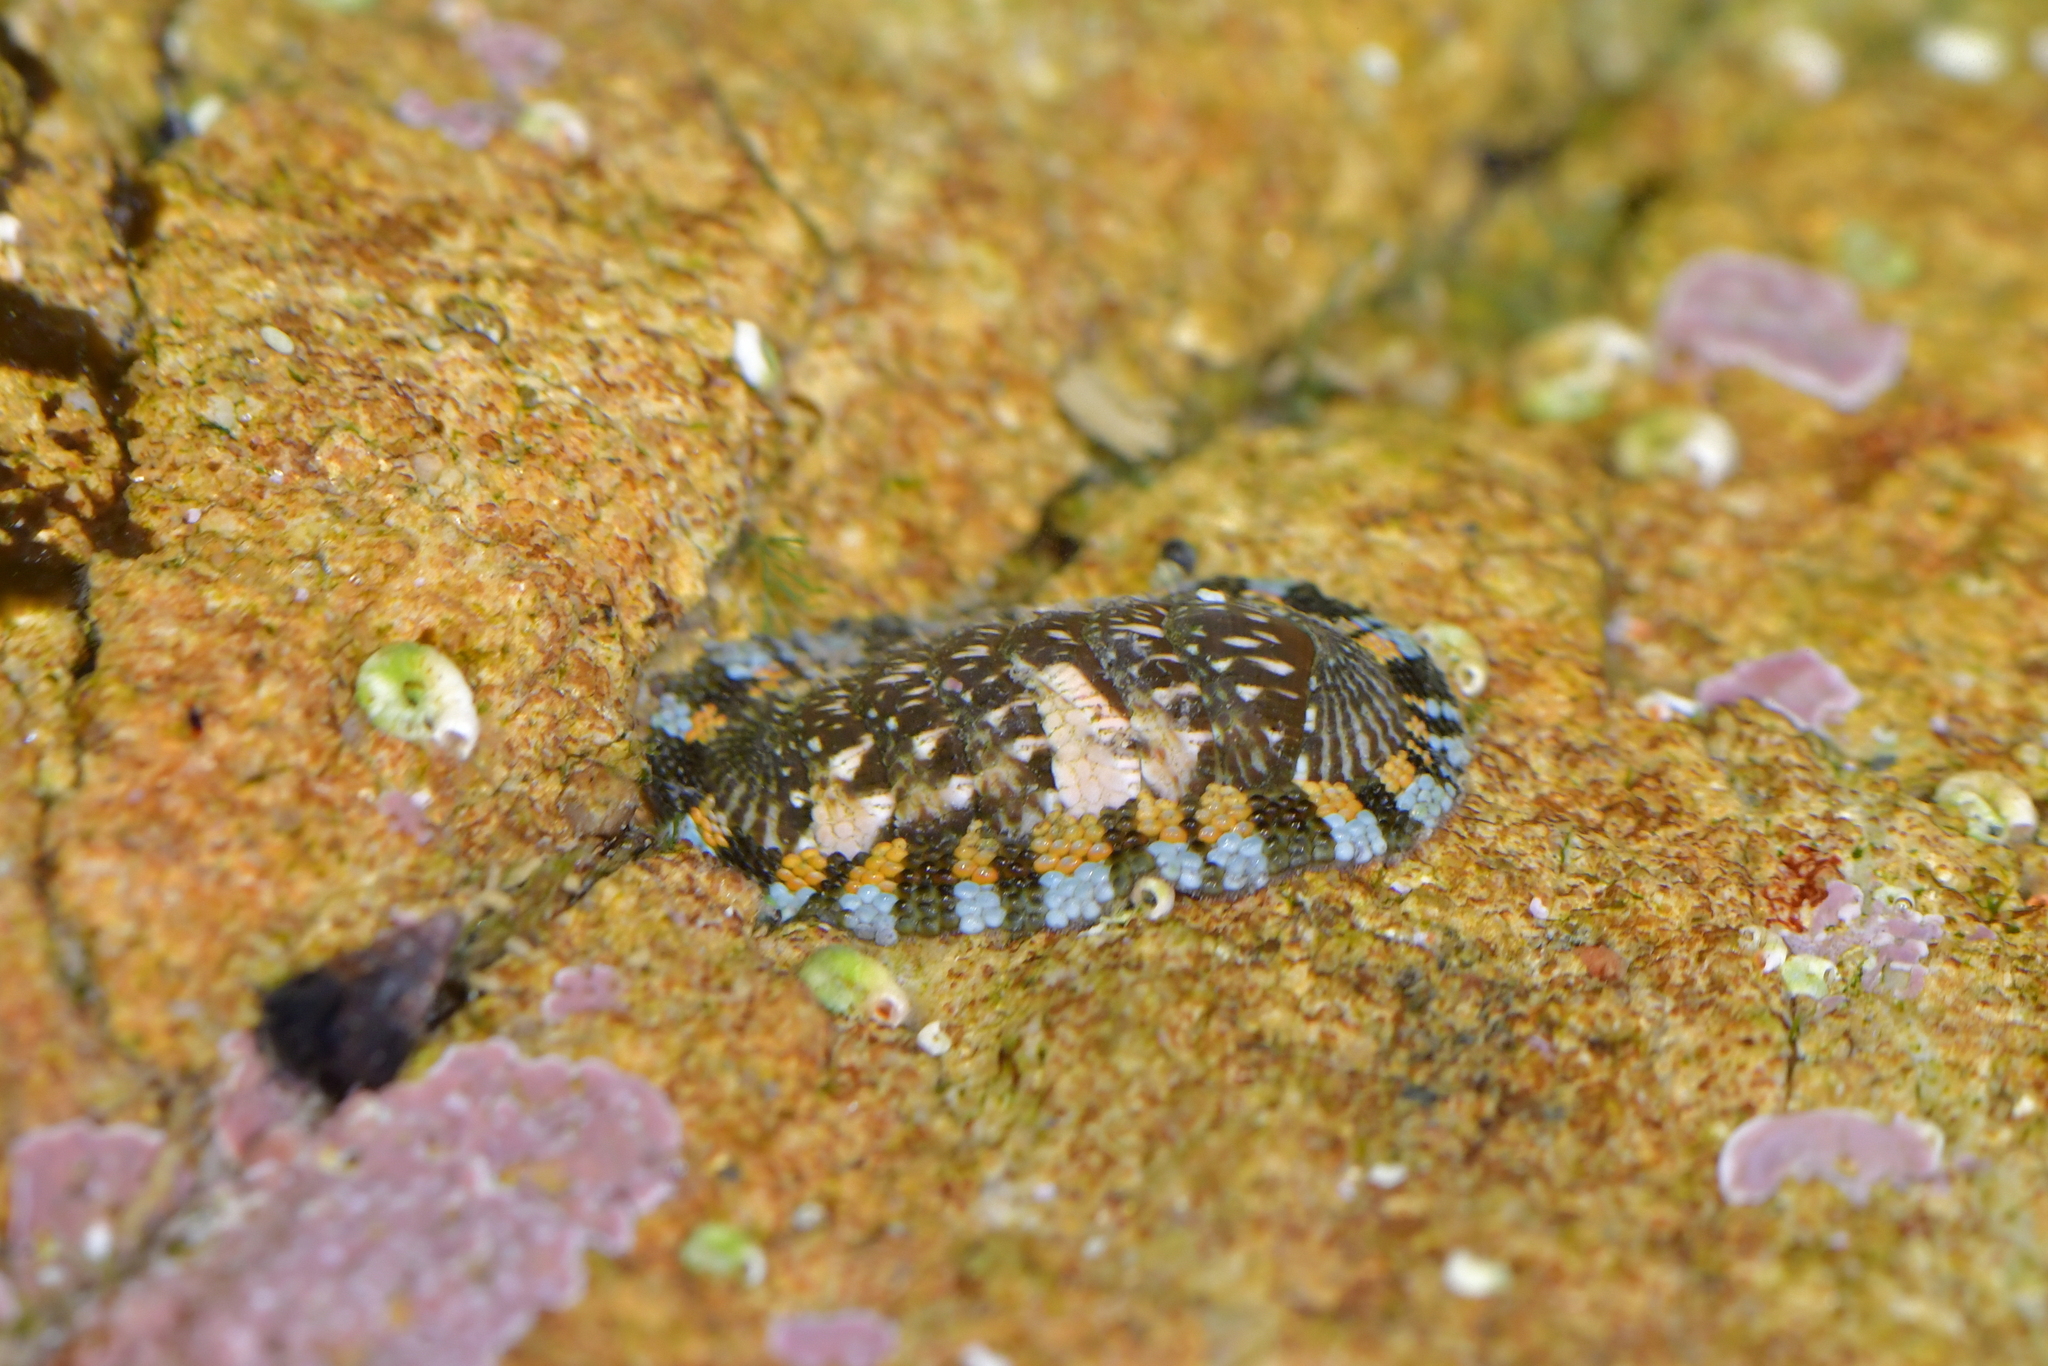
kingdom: Animalia
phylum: Mollusca
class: Polyplacophora
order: Chitonida
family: Chitonidae
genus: Sypharochiton
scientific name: Sypharochiton sinclairi
